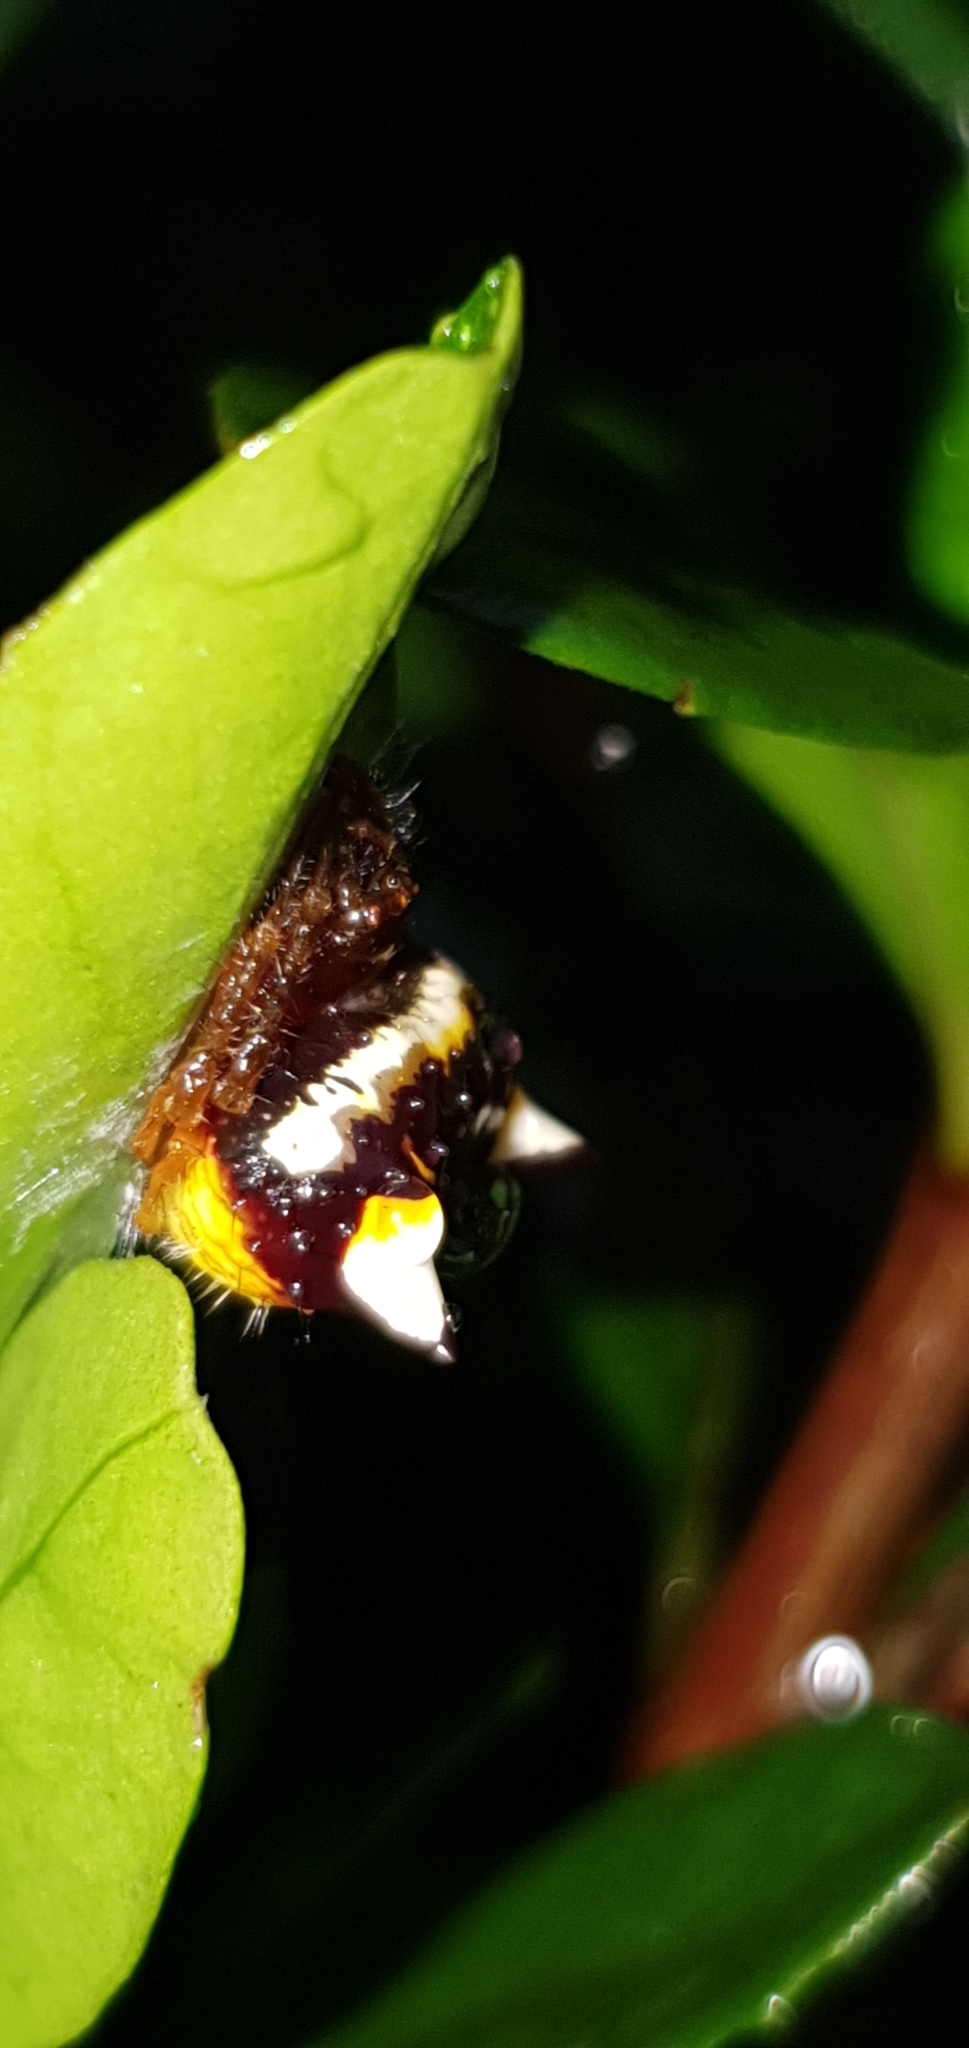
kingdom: Animalia
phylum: Arthropoda
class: Arachnida
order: Araneae
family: Araneidae
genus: Poecilopachys
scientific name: Poecilopachys australasia
